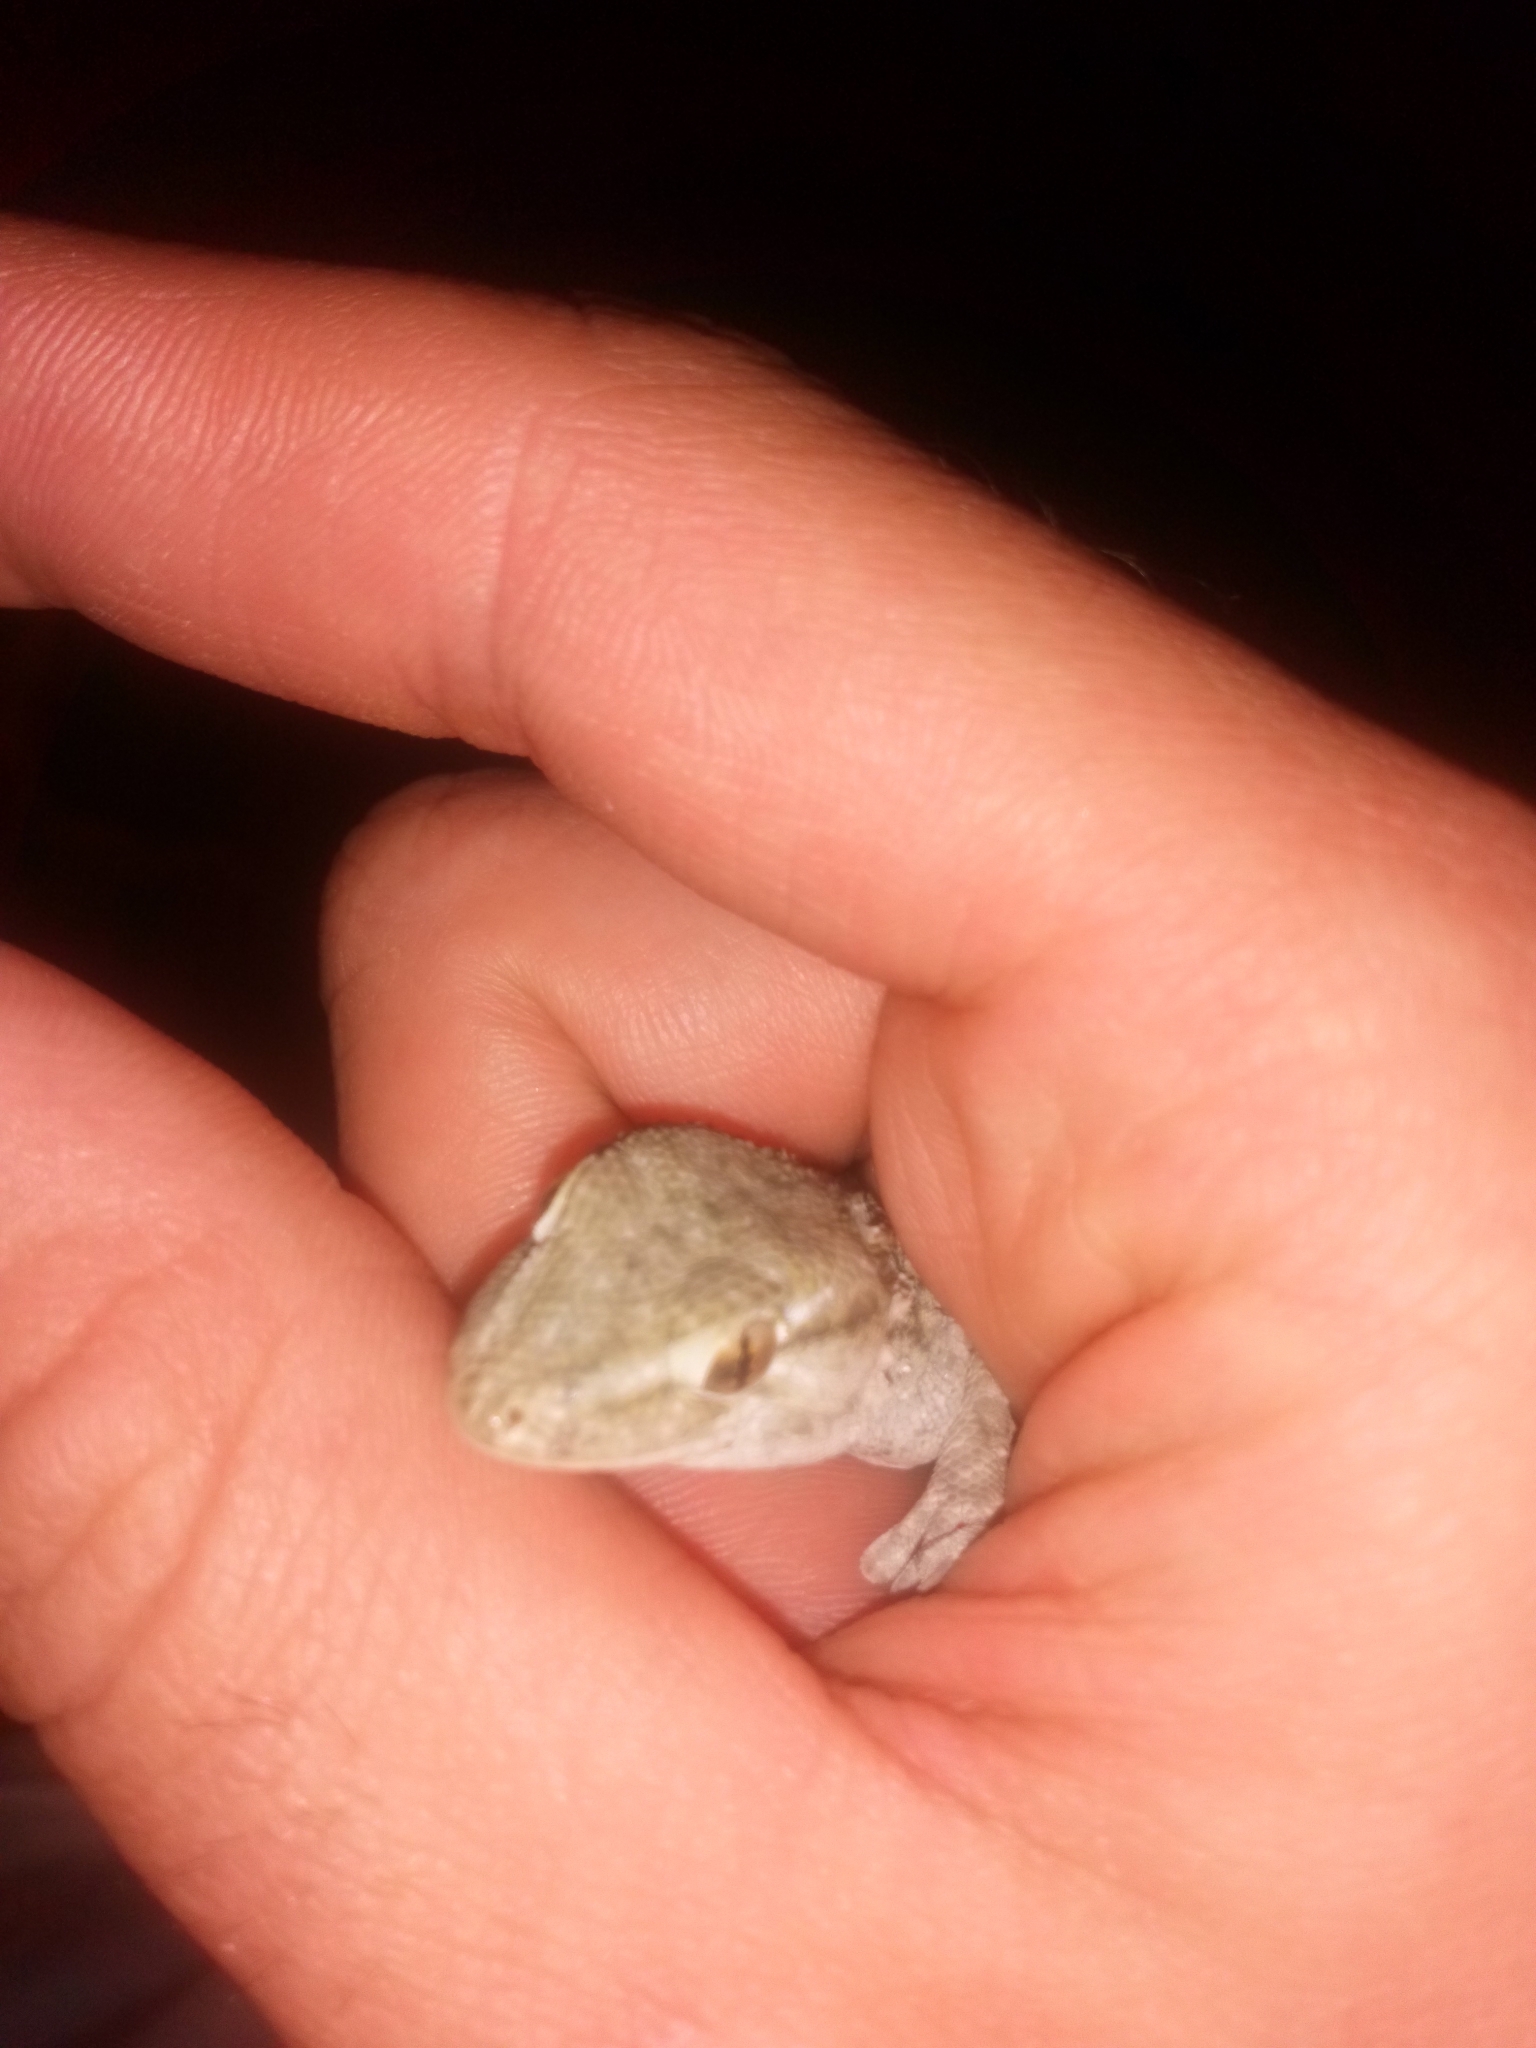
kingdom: Animalia
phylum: Chordata
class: Squamata
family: Phyllodactylidae
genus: Tarentola
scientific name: Tarentola mauritanica
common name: Moorish gecko
